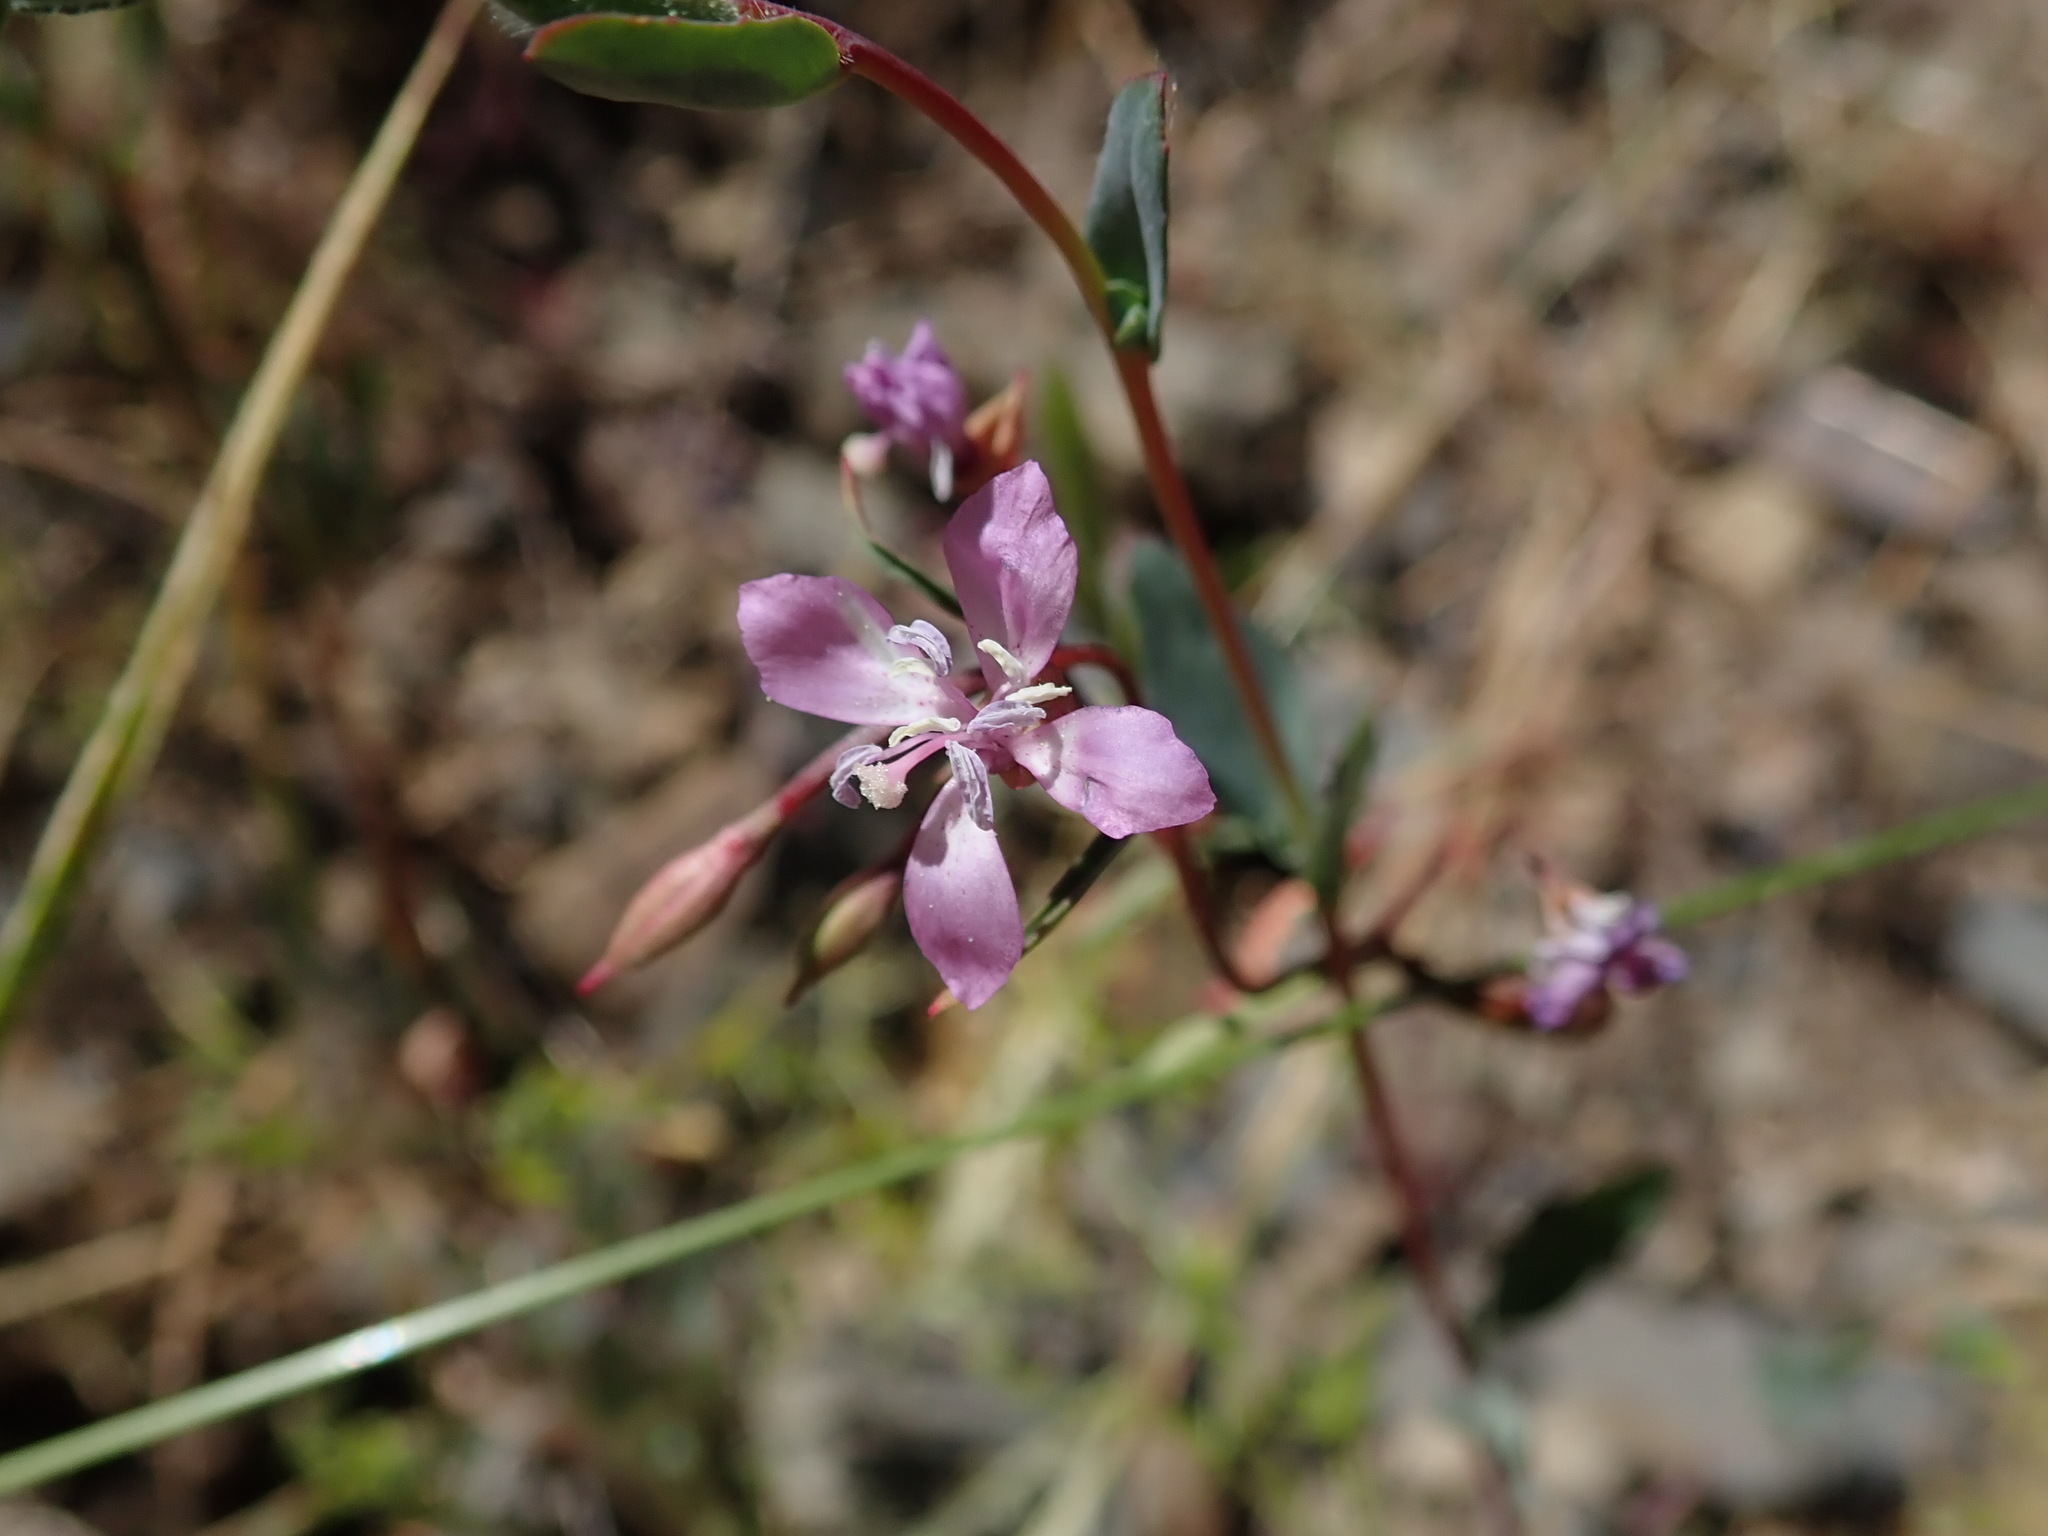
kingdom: Plantae
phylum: Tracheophyta
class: Magnoliopsida
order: Myrtales
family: Onagraceae
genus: Clarkia
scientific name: Clarkia modesta
